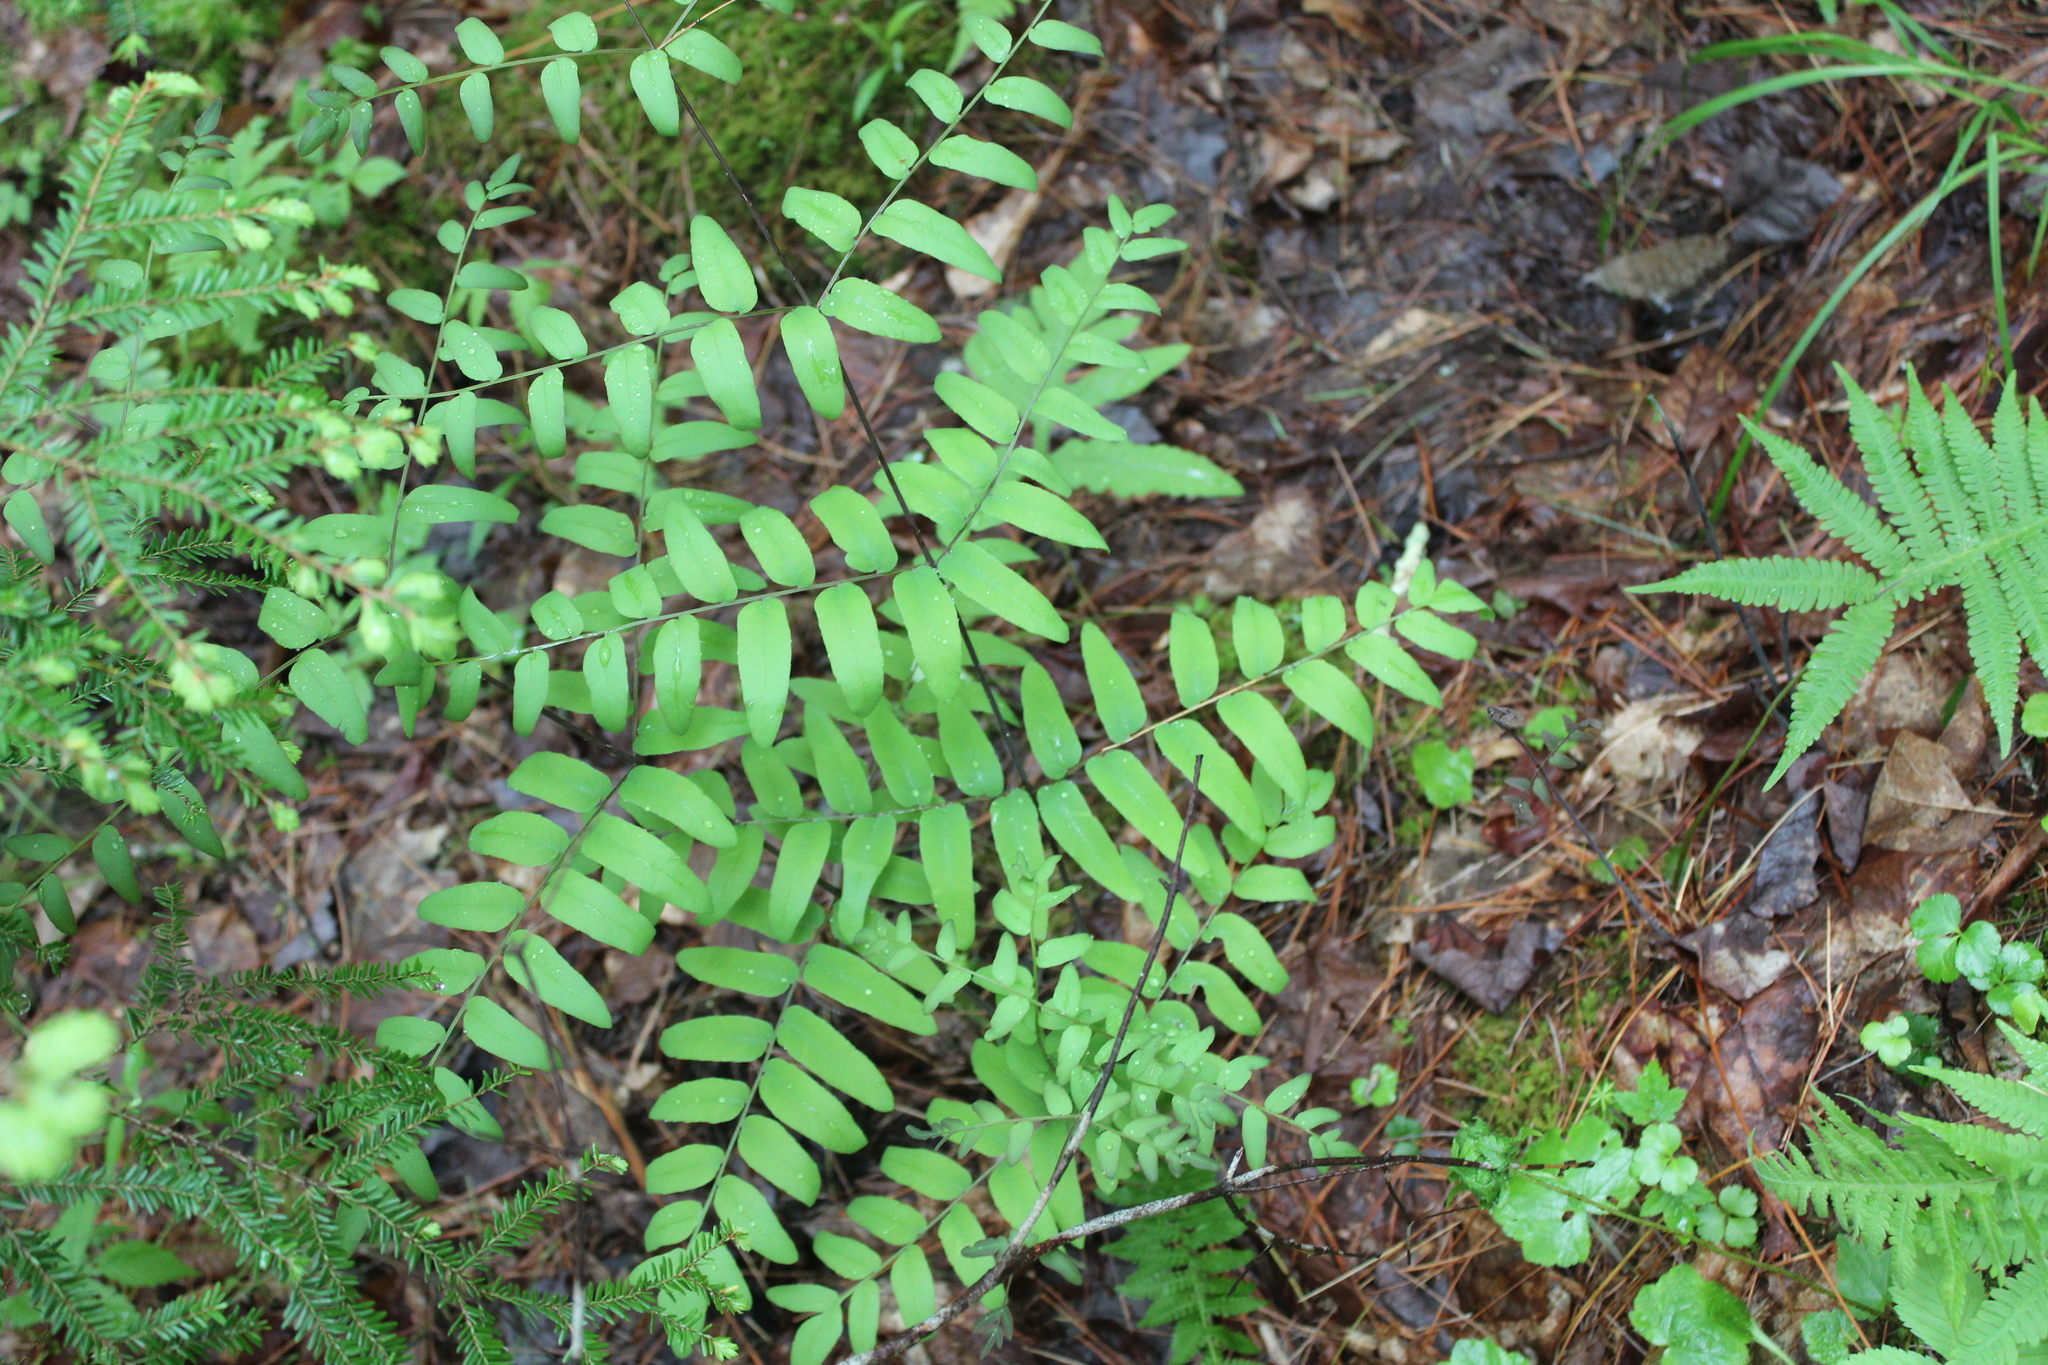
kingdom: Plantae
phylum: Tracheophyta
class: Polypodiopsida
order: Osmundales
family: Osmundaceae
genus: Osmunda
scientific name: Osmunda spectabilis
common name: American royal fern
